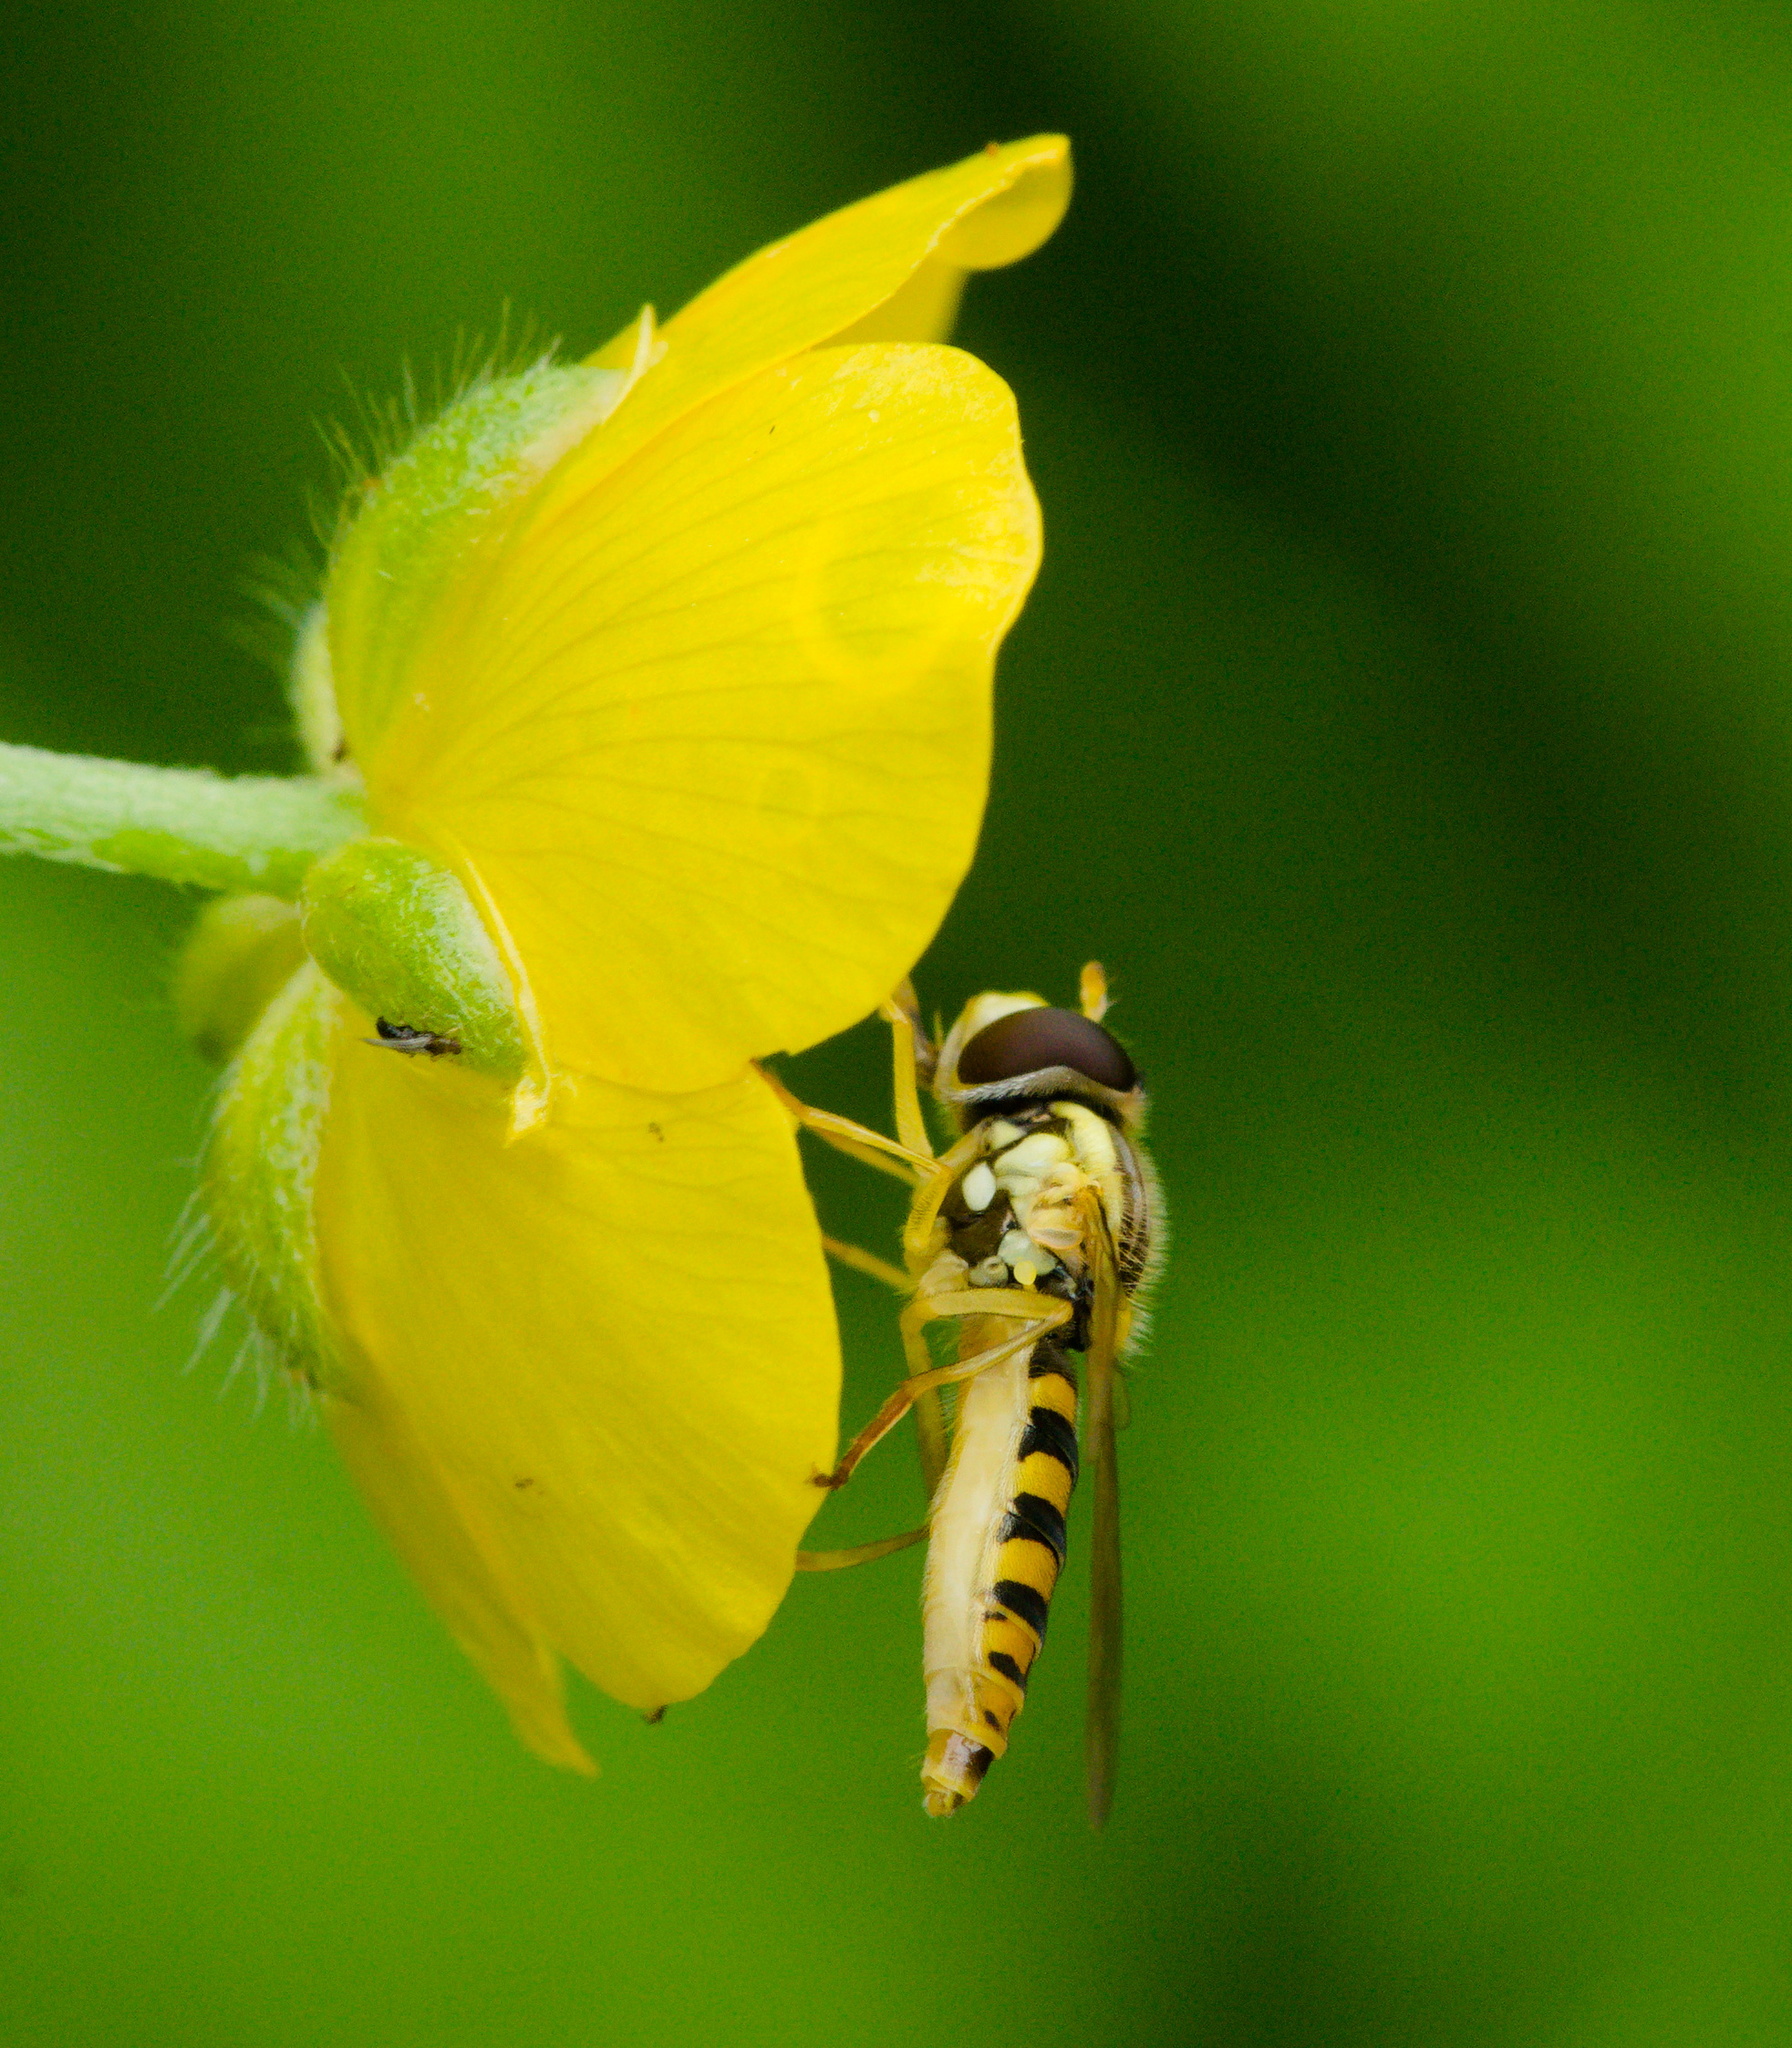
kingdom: Animalia
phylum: Arthropoda
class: Insecta
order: Diptera
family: Syrphidae
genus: Sphaerophoria
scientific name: Sphaerophoria
